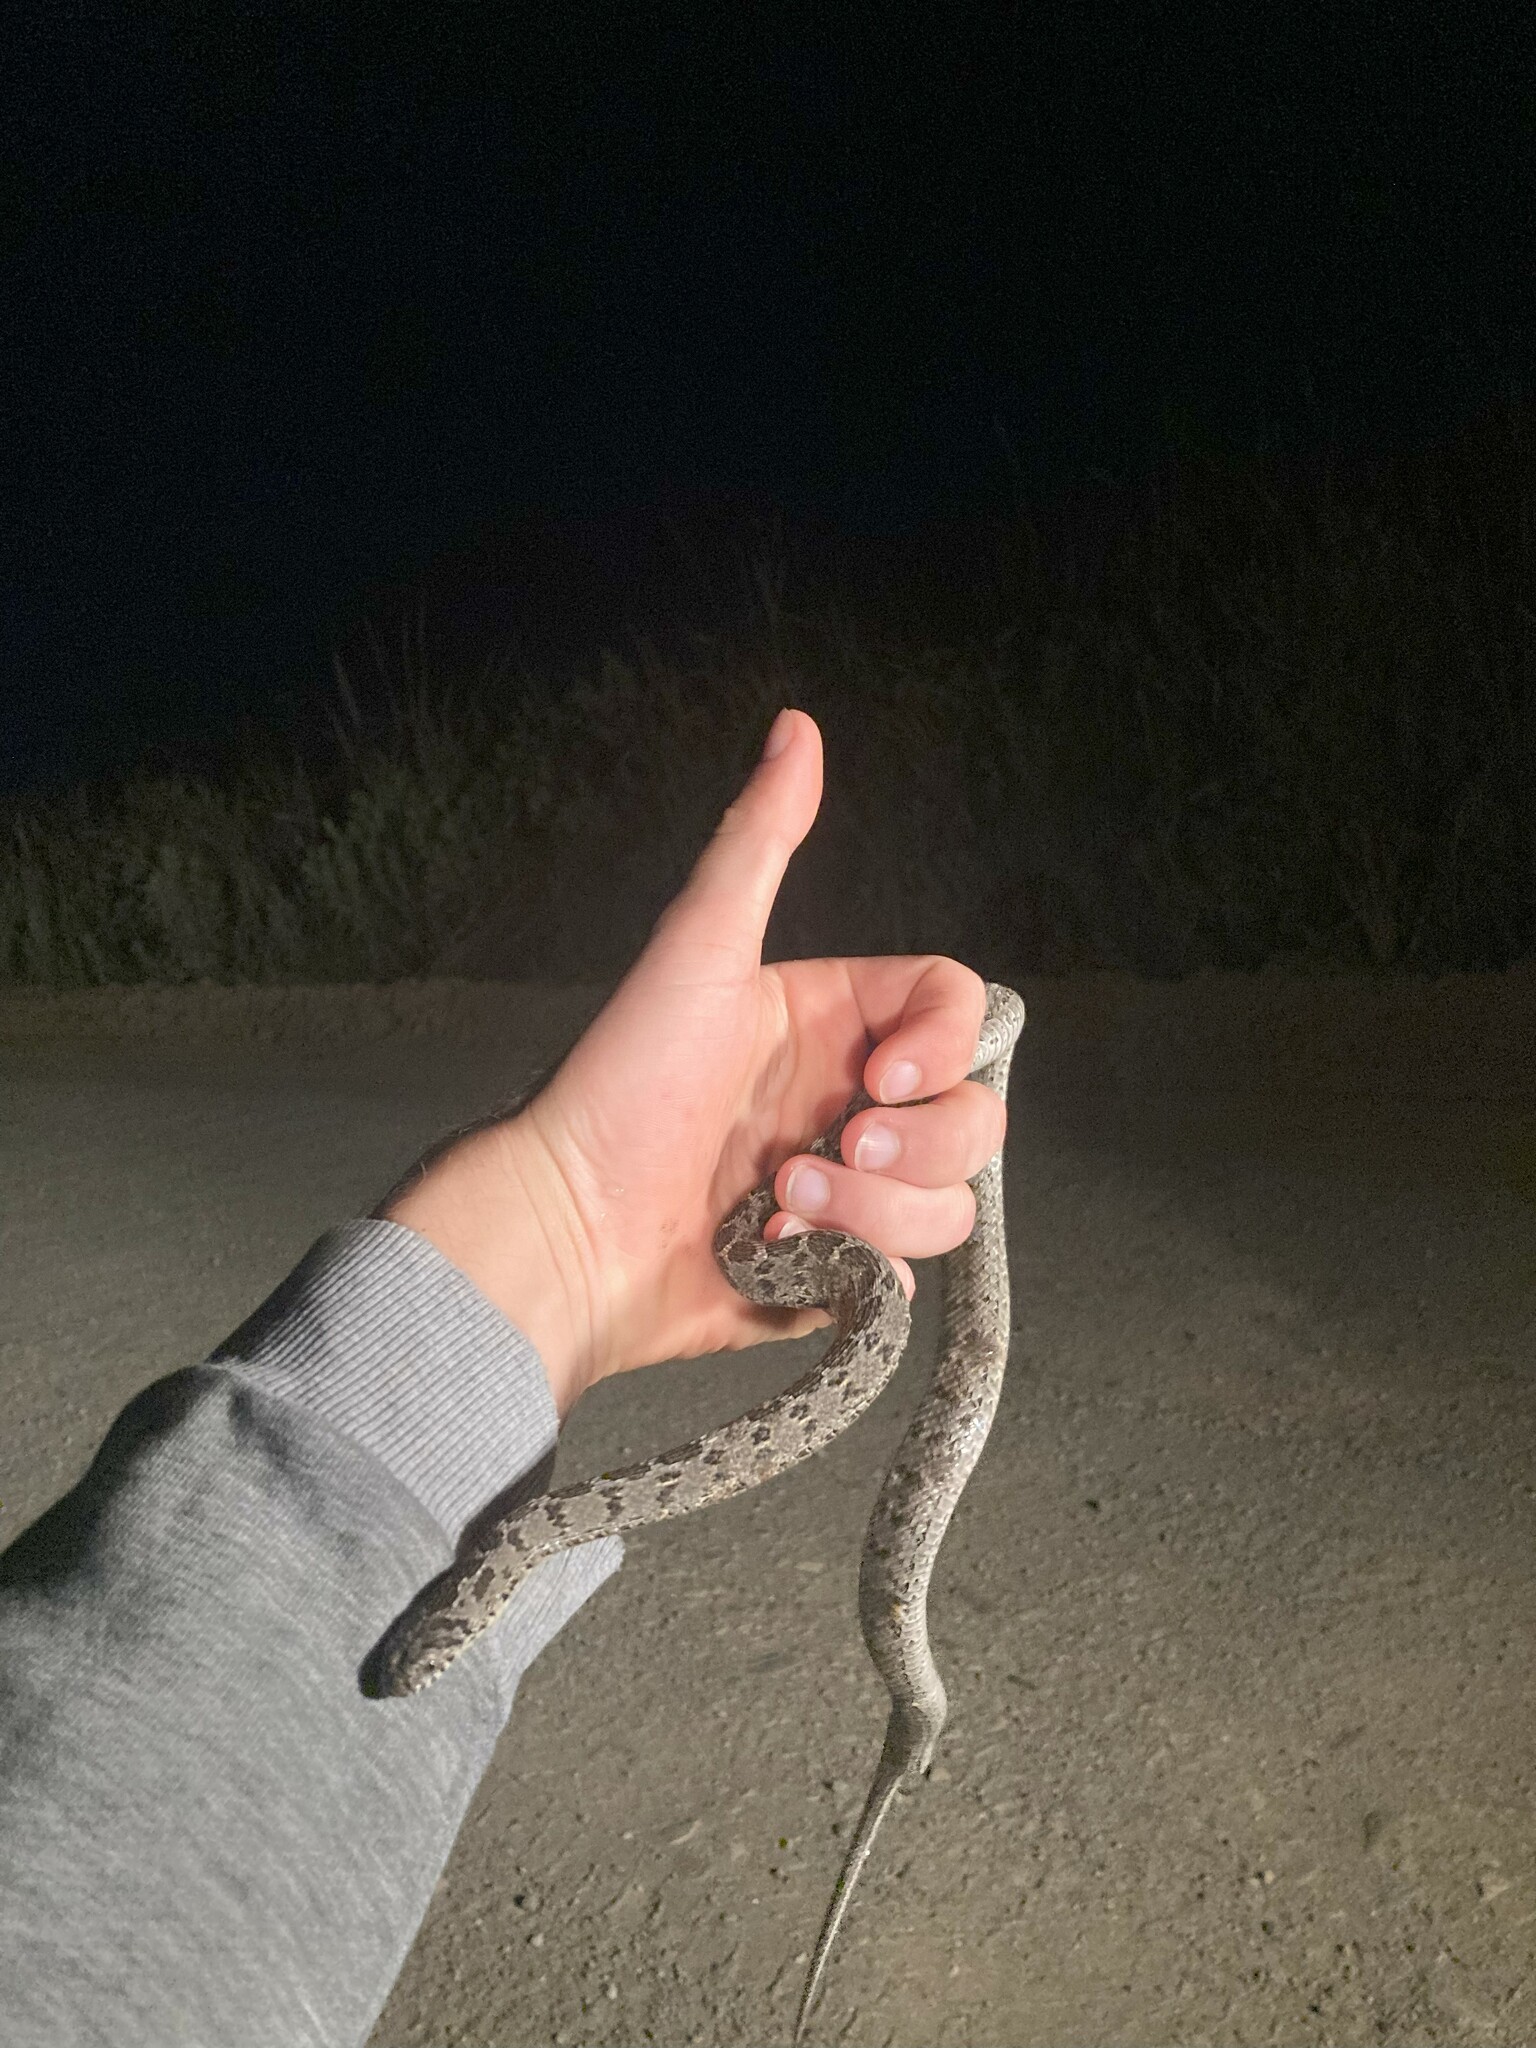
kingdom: Animalia
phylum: Chordata
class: Squamata
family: Colubridae
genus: Dasypeltis
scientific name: Dasypeltis scabra
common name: Common egg eater
